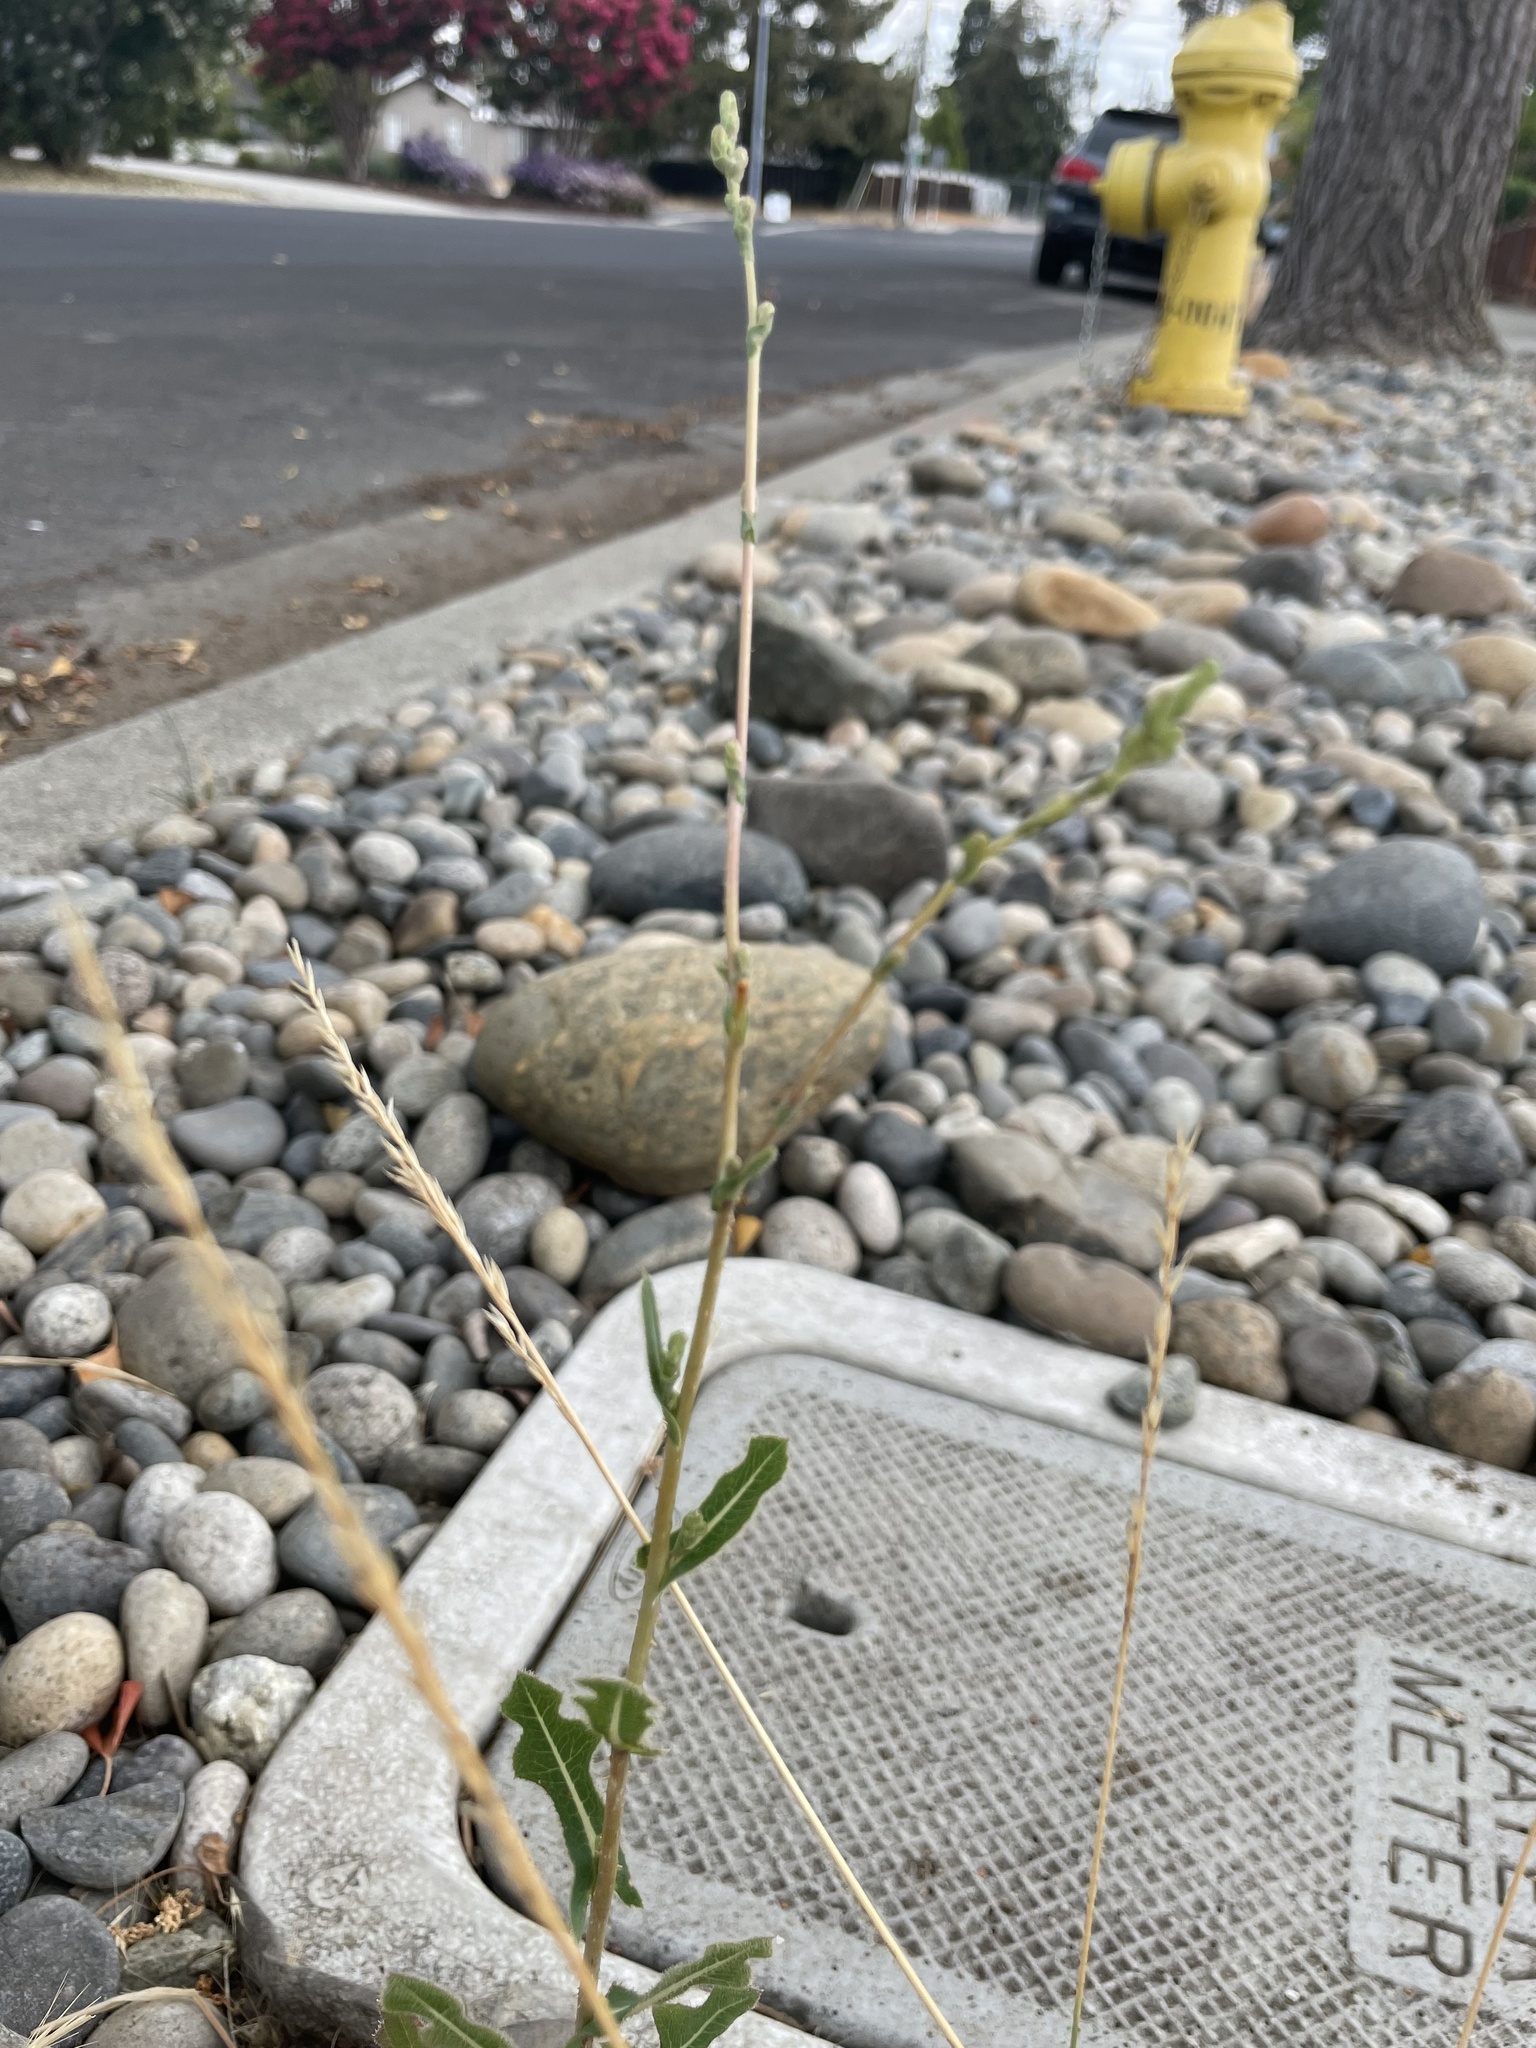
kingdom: Plantae
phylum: Tracheophyta
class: Magnoliopsida
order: Asterales
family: Asteraceae
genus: Lactuca
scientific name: Lactuca serriola
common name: Prickly lettuce
